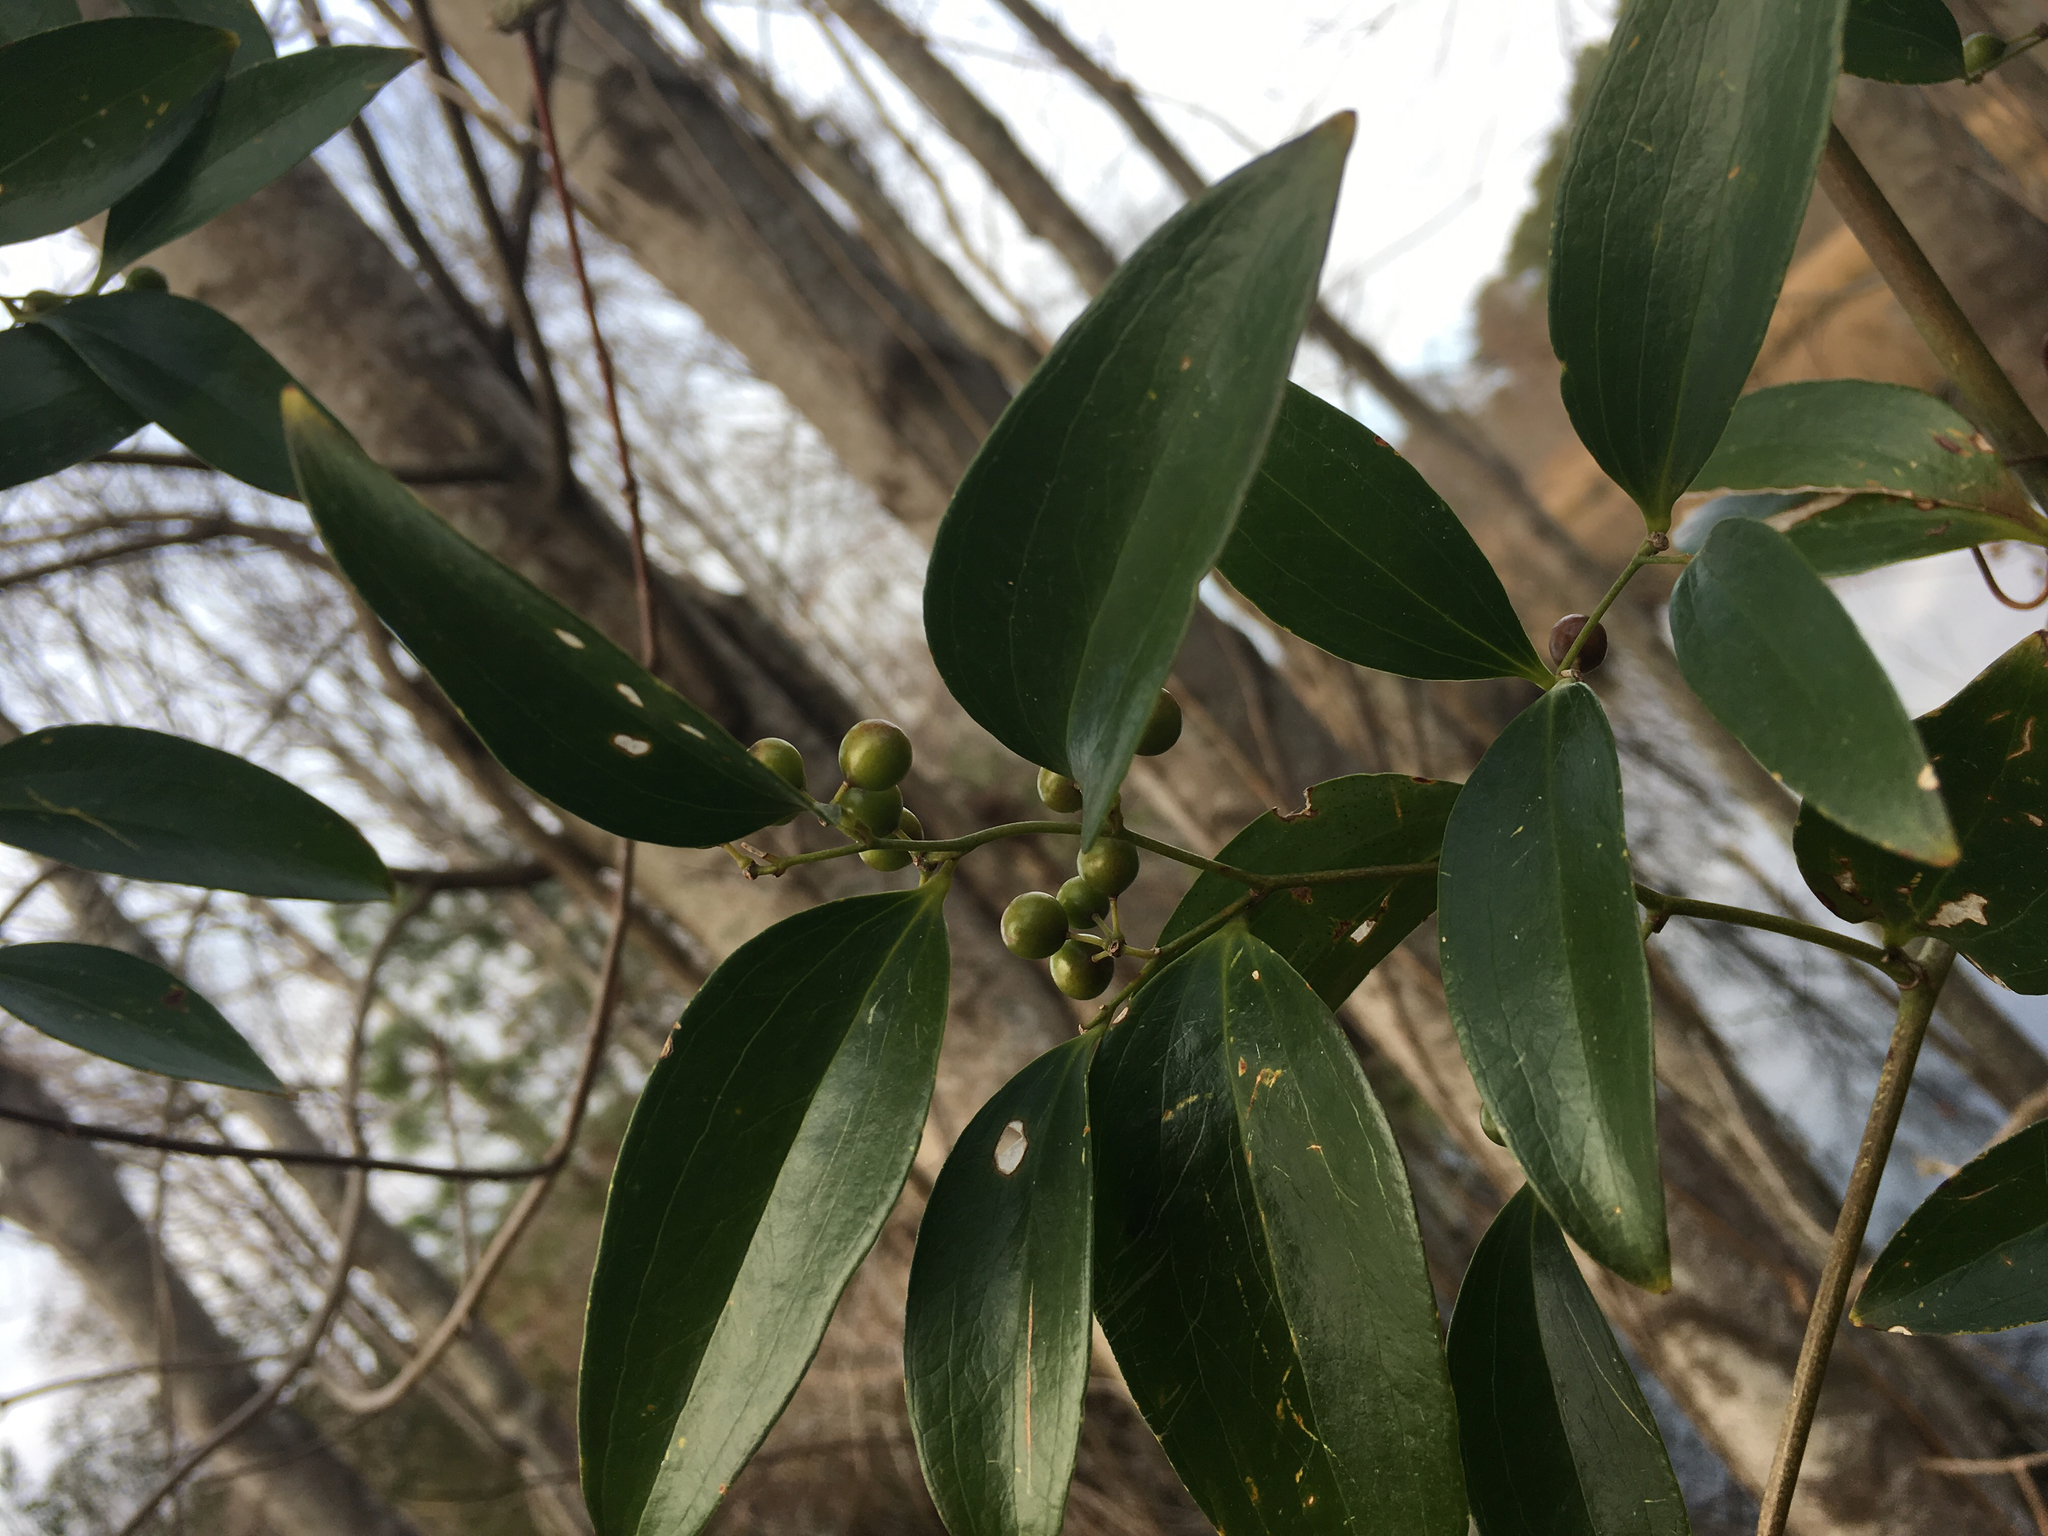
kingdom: Plantae
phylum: Tracheophyta
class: Liliopsida
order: Liliales
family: Smilacaceae
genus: Smilax
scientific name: Smilax maritima
